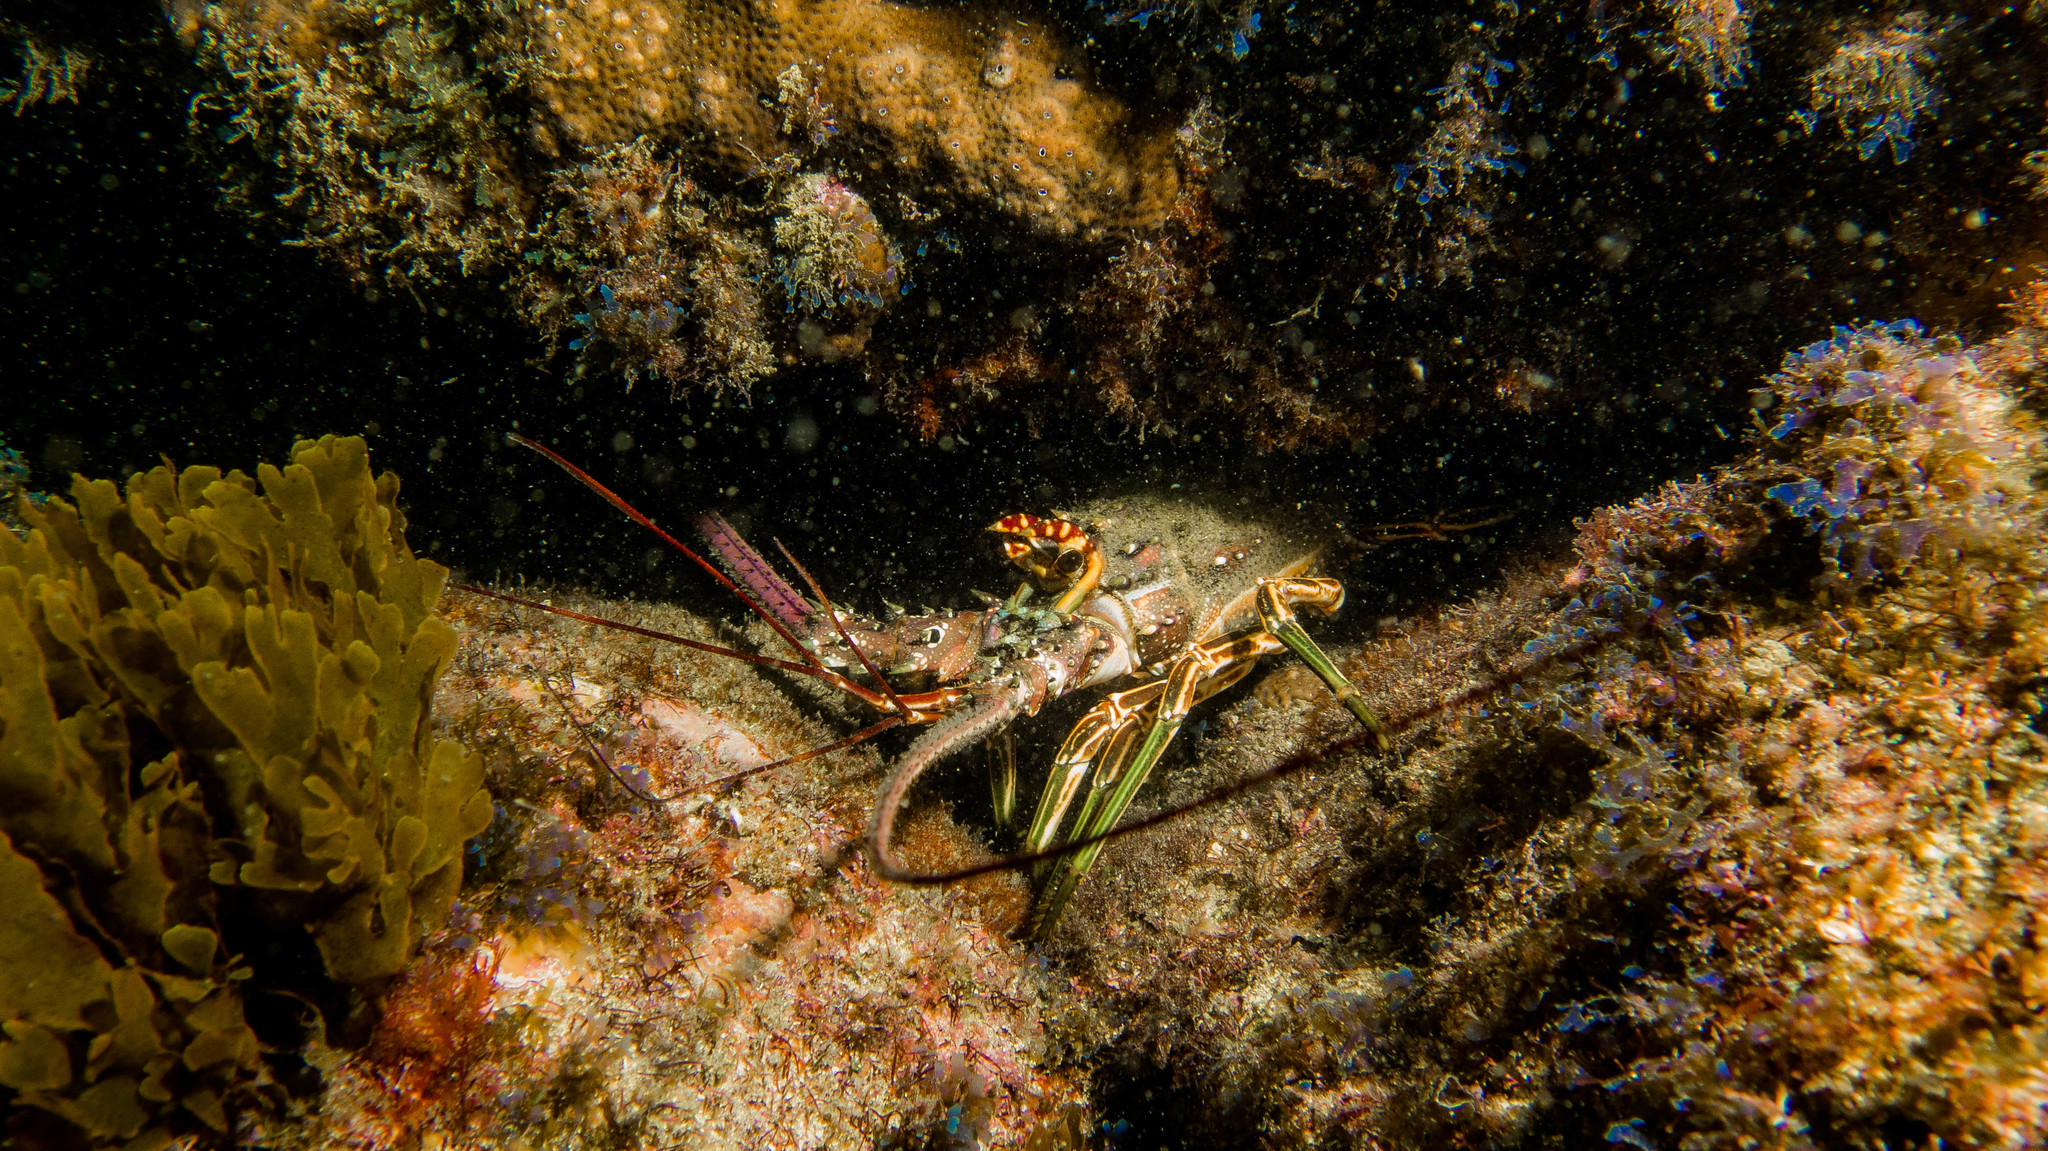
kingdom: Animalia
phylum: Arthropoda
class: Malacostraca
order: Decapoda
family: Palinuridae
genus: Panulirus
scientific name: Panulirus laevicauda
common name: Smoothtail spiny lobster
